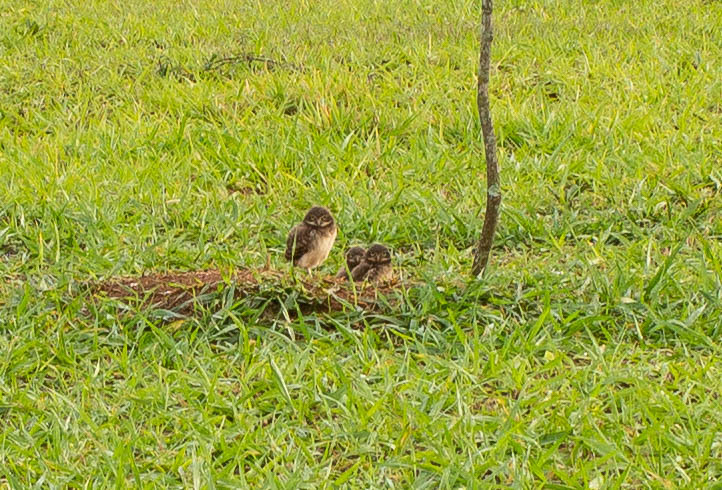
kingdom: Animalia
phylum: Chordata
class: Aves
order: Strigiformes
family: Strigidae
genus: Athene
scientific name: Athene cunicularia
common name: Burrowing owl
